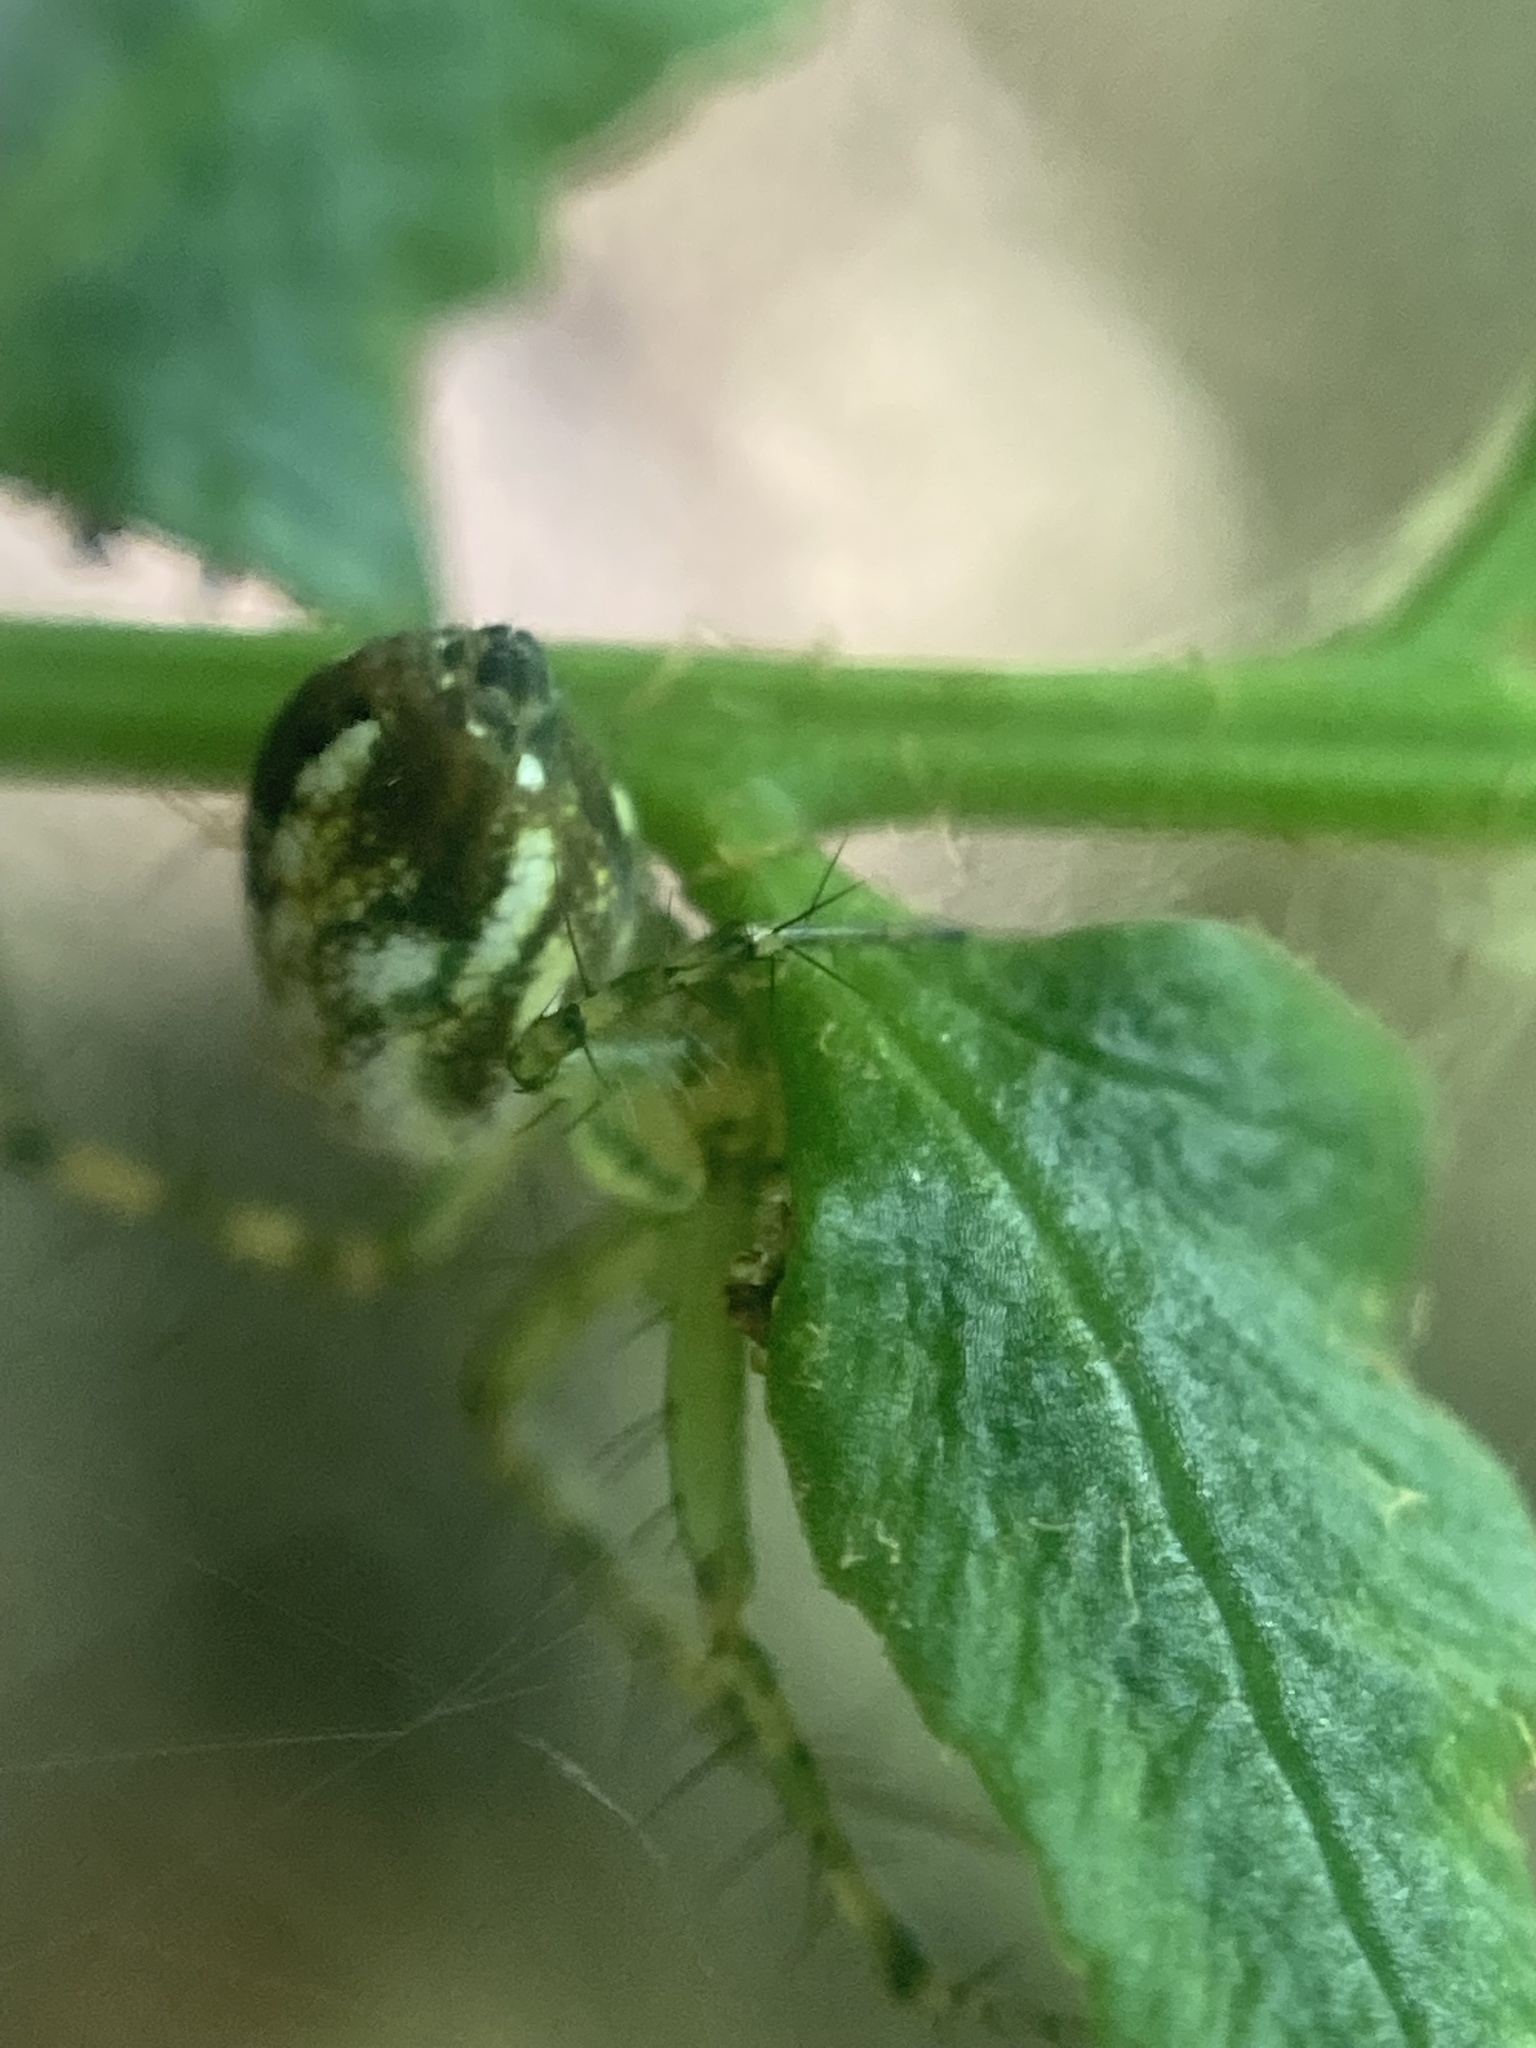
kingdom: Animalia
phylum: Arthropoda
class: Arachnida
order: Araneae
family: Araneidae
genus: Mangora
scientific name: Mangora spiculata
